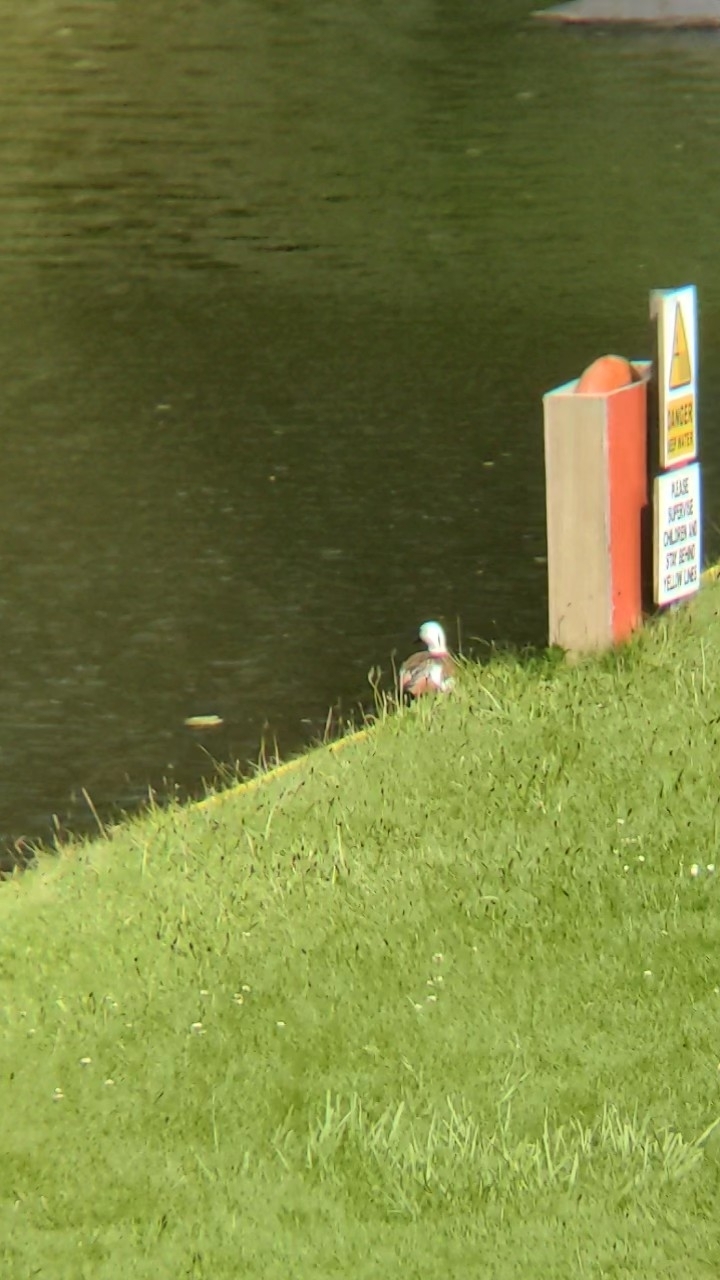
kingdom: Animalia
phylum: Chordata
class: Aves
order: Anseriformes
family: Anatidae
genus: Tadorna
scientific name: Tadorna variegata
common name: Paradise shelduck
